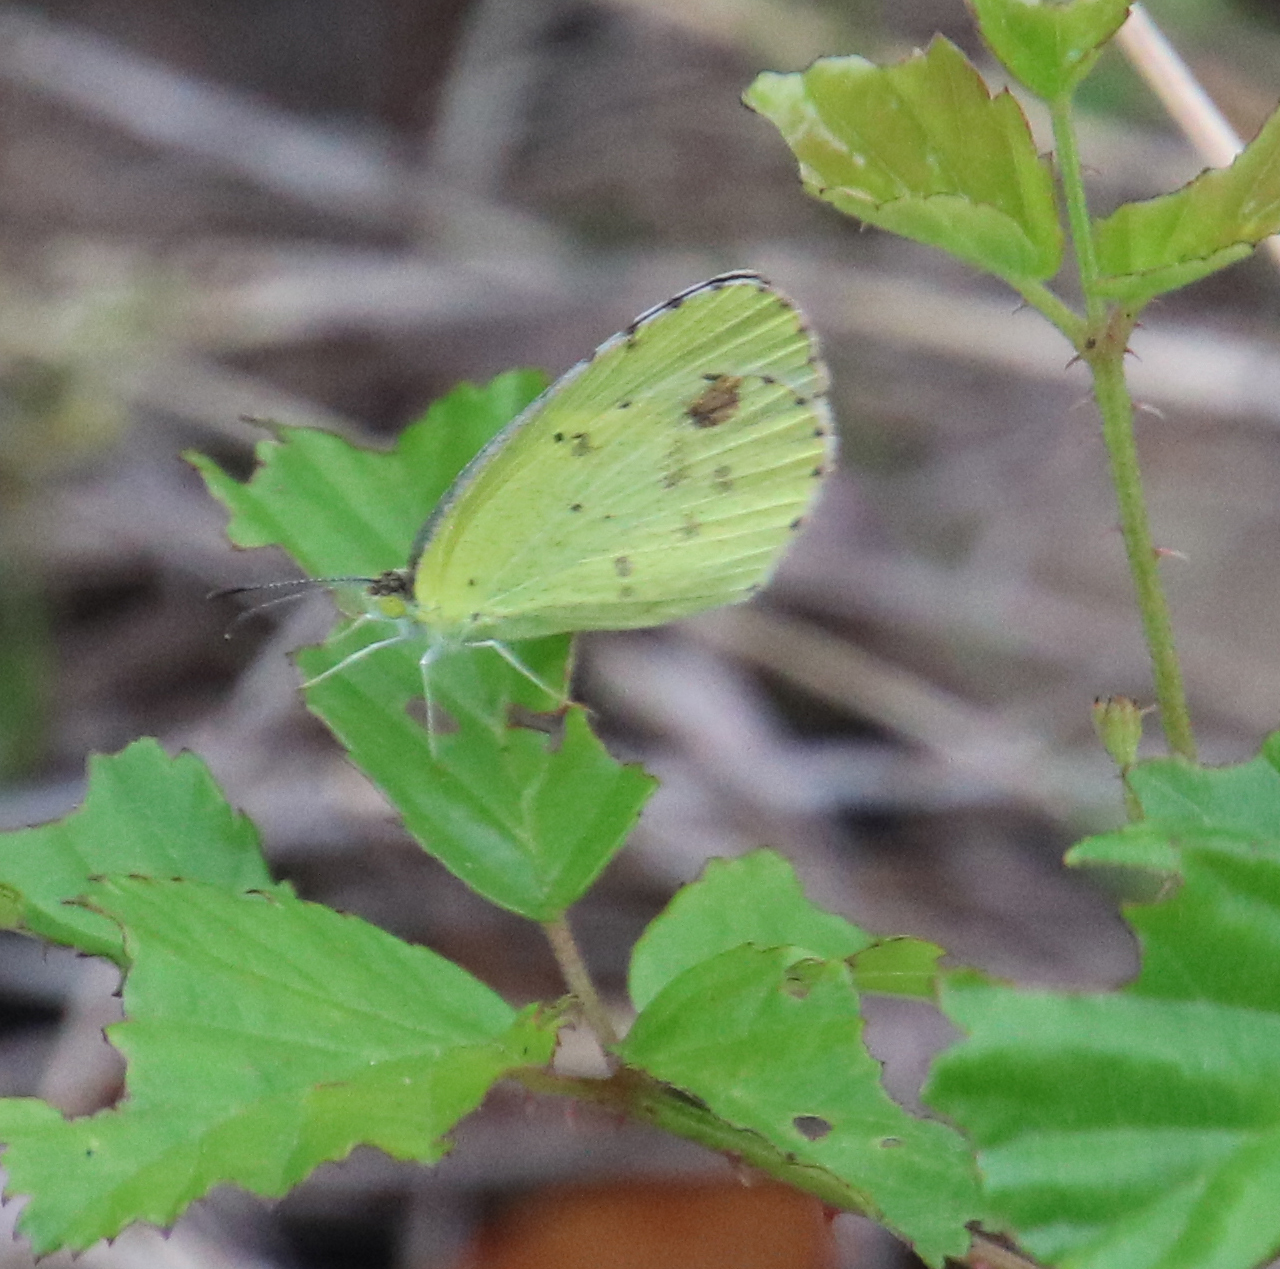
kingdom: Animalia
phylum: Arthropoda
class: Insecta
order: Lepidoptera
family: Pieridae
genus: Pyrisitia
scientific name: Pyrisitia lisa
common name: Little yellow
